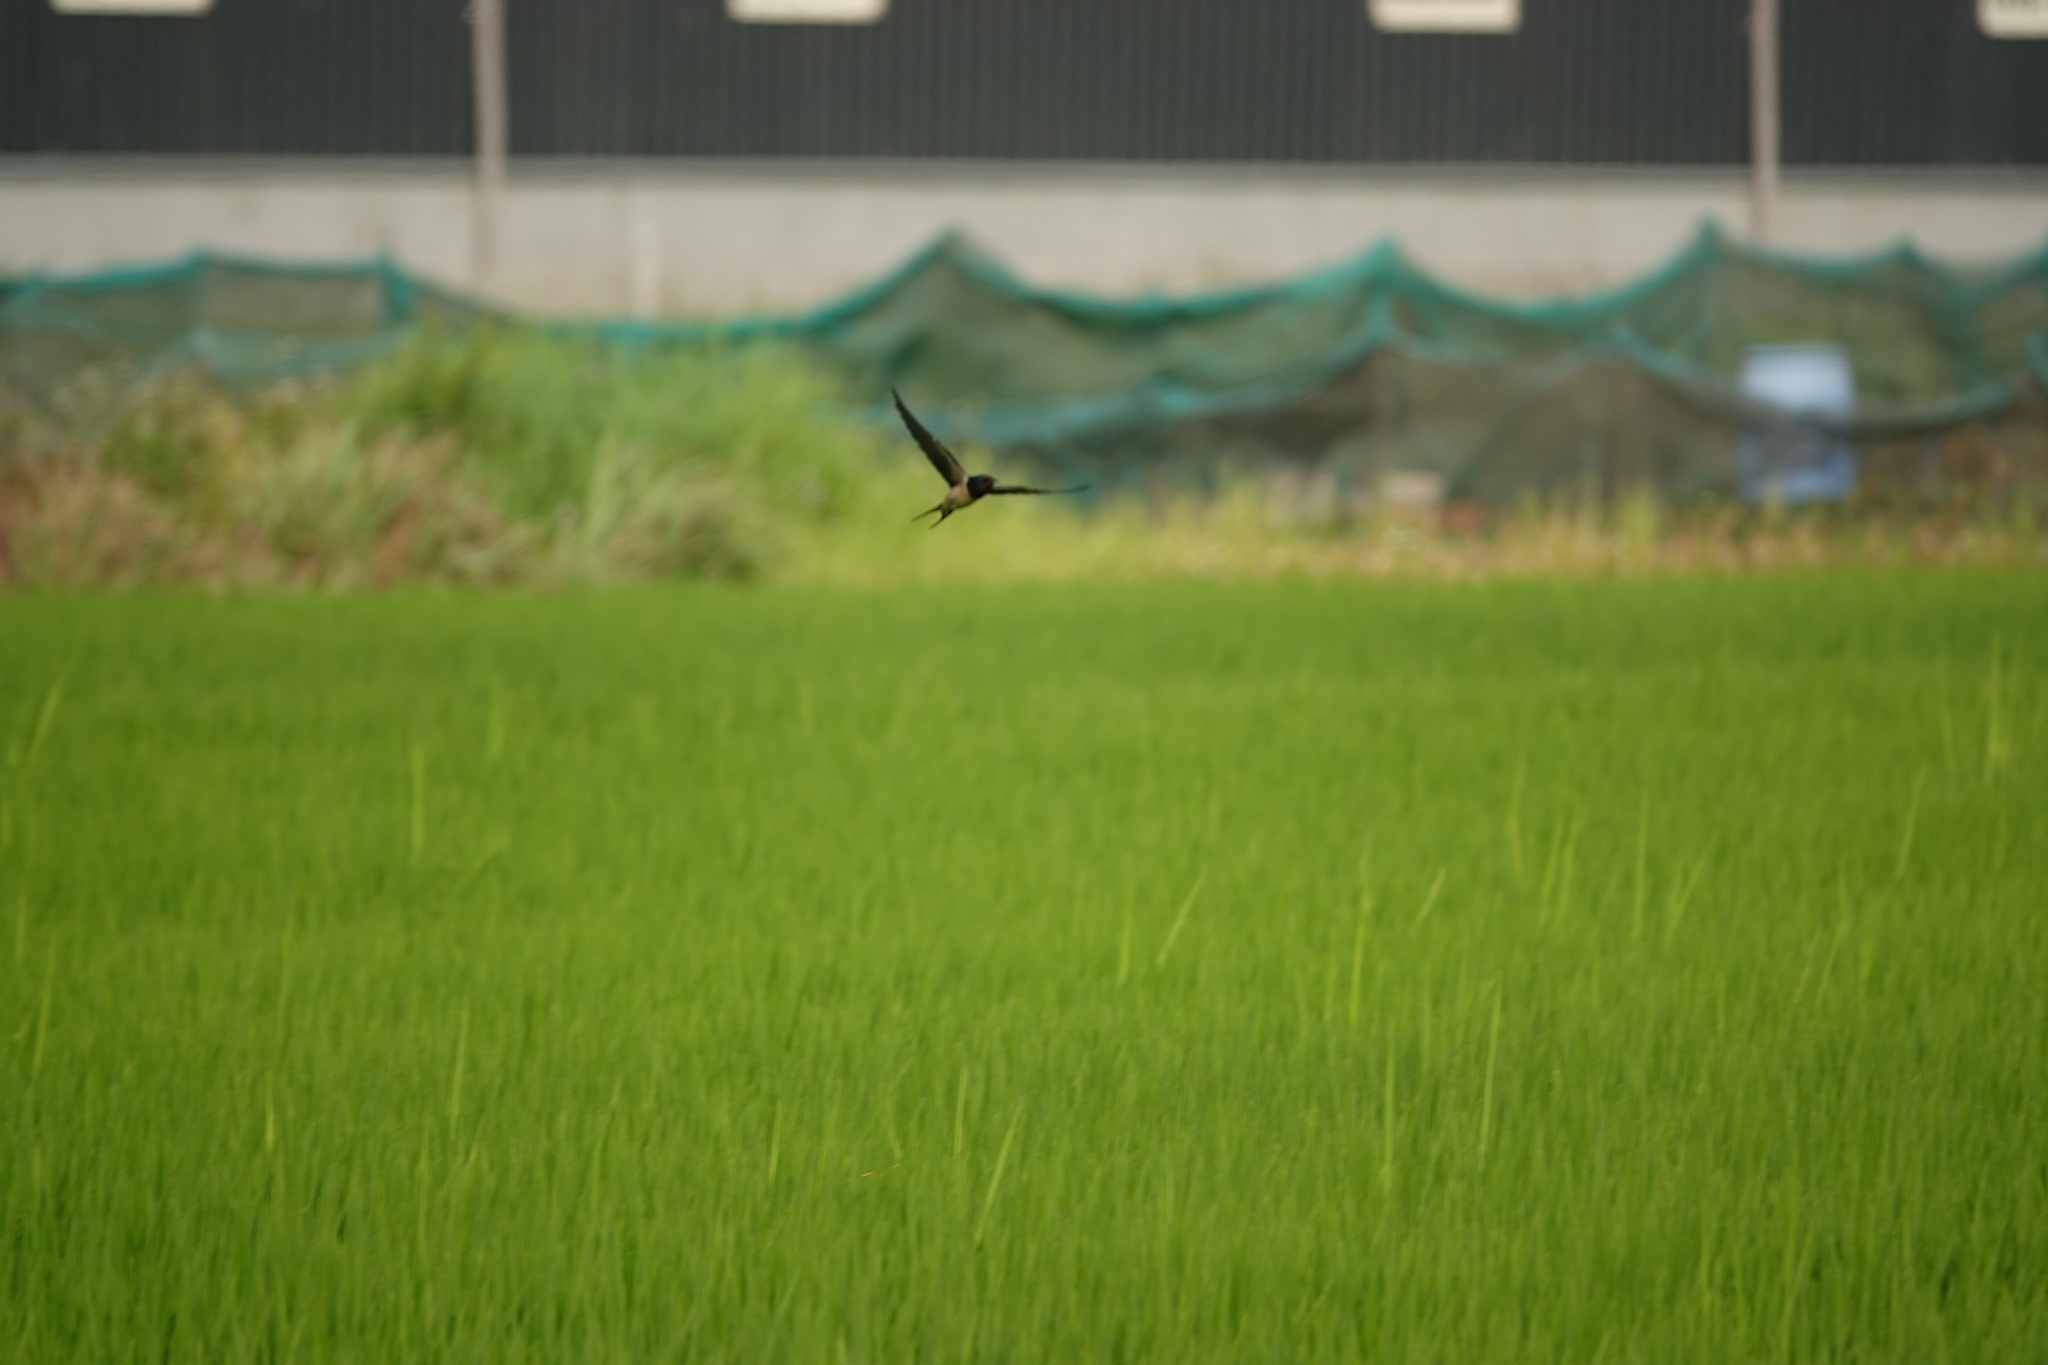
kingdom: Animalia
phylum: Chordata
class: Aves
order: Passeriformes
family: Hirundinidae
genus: Hirundo
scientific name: Hirundo rustica
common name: Barn swallow
